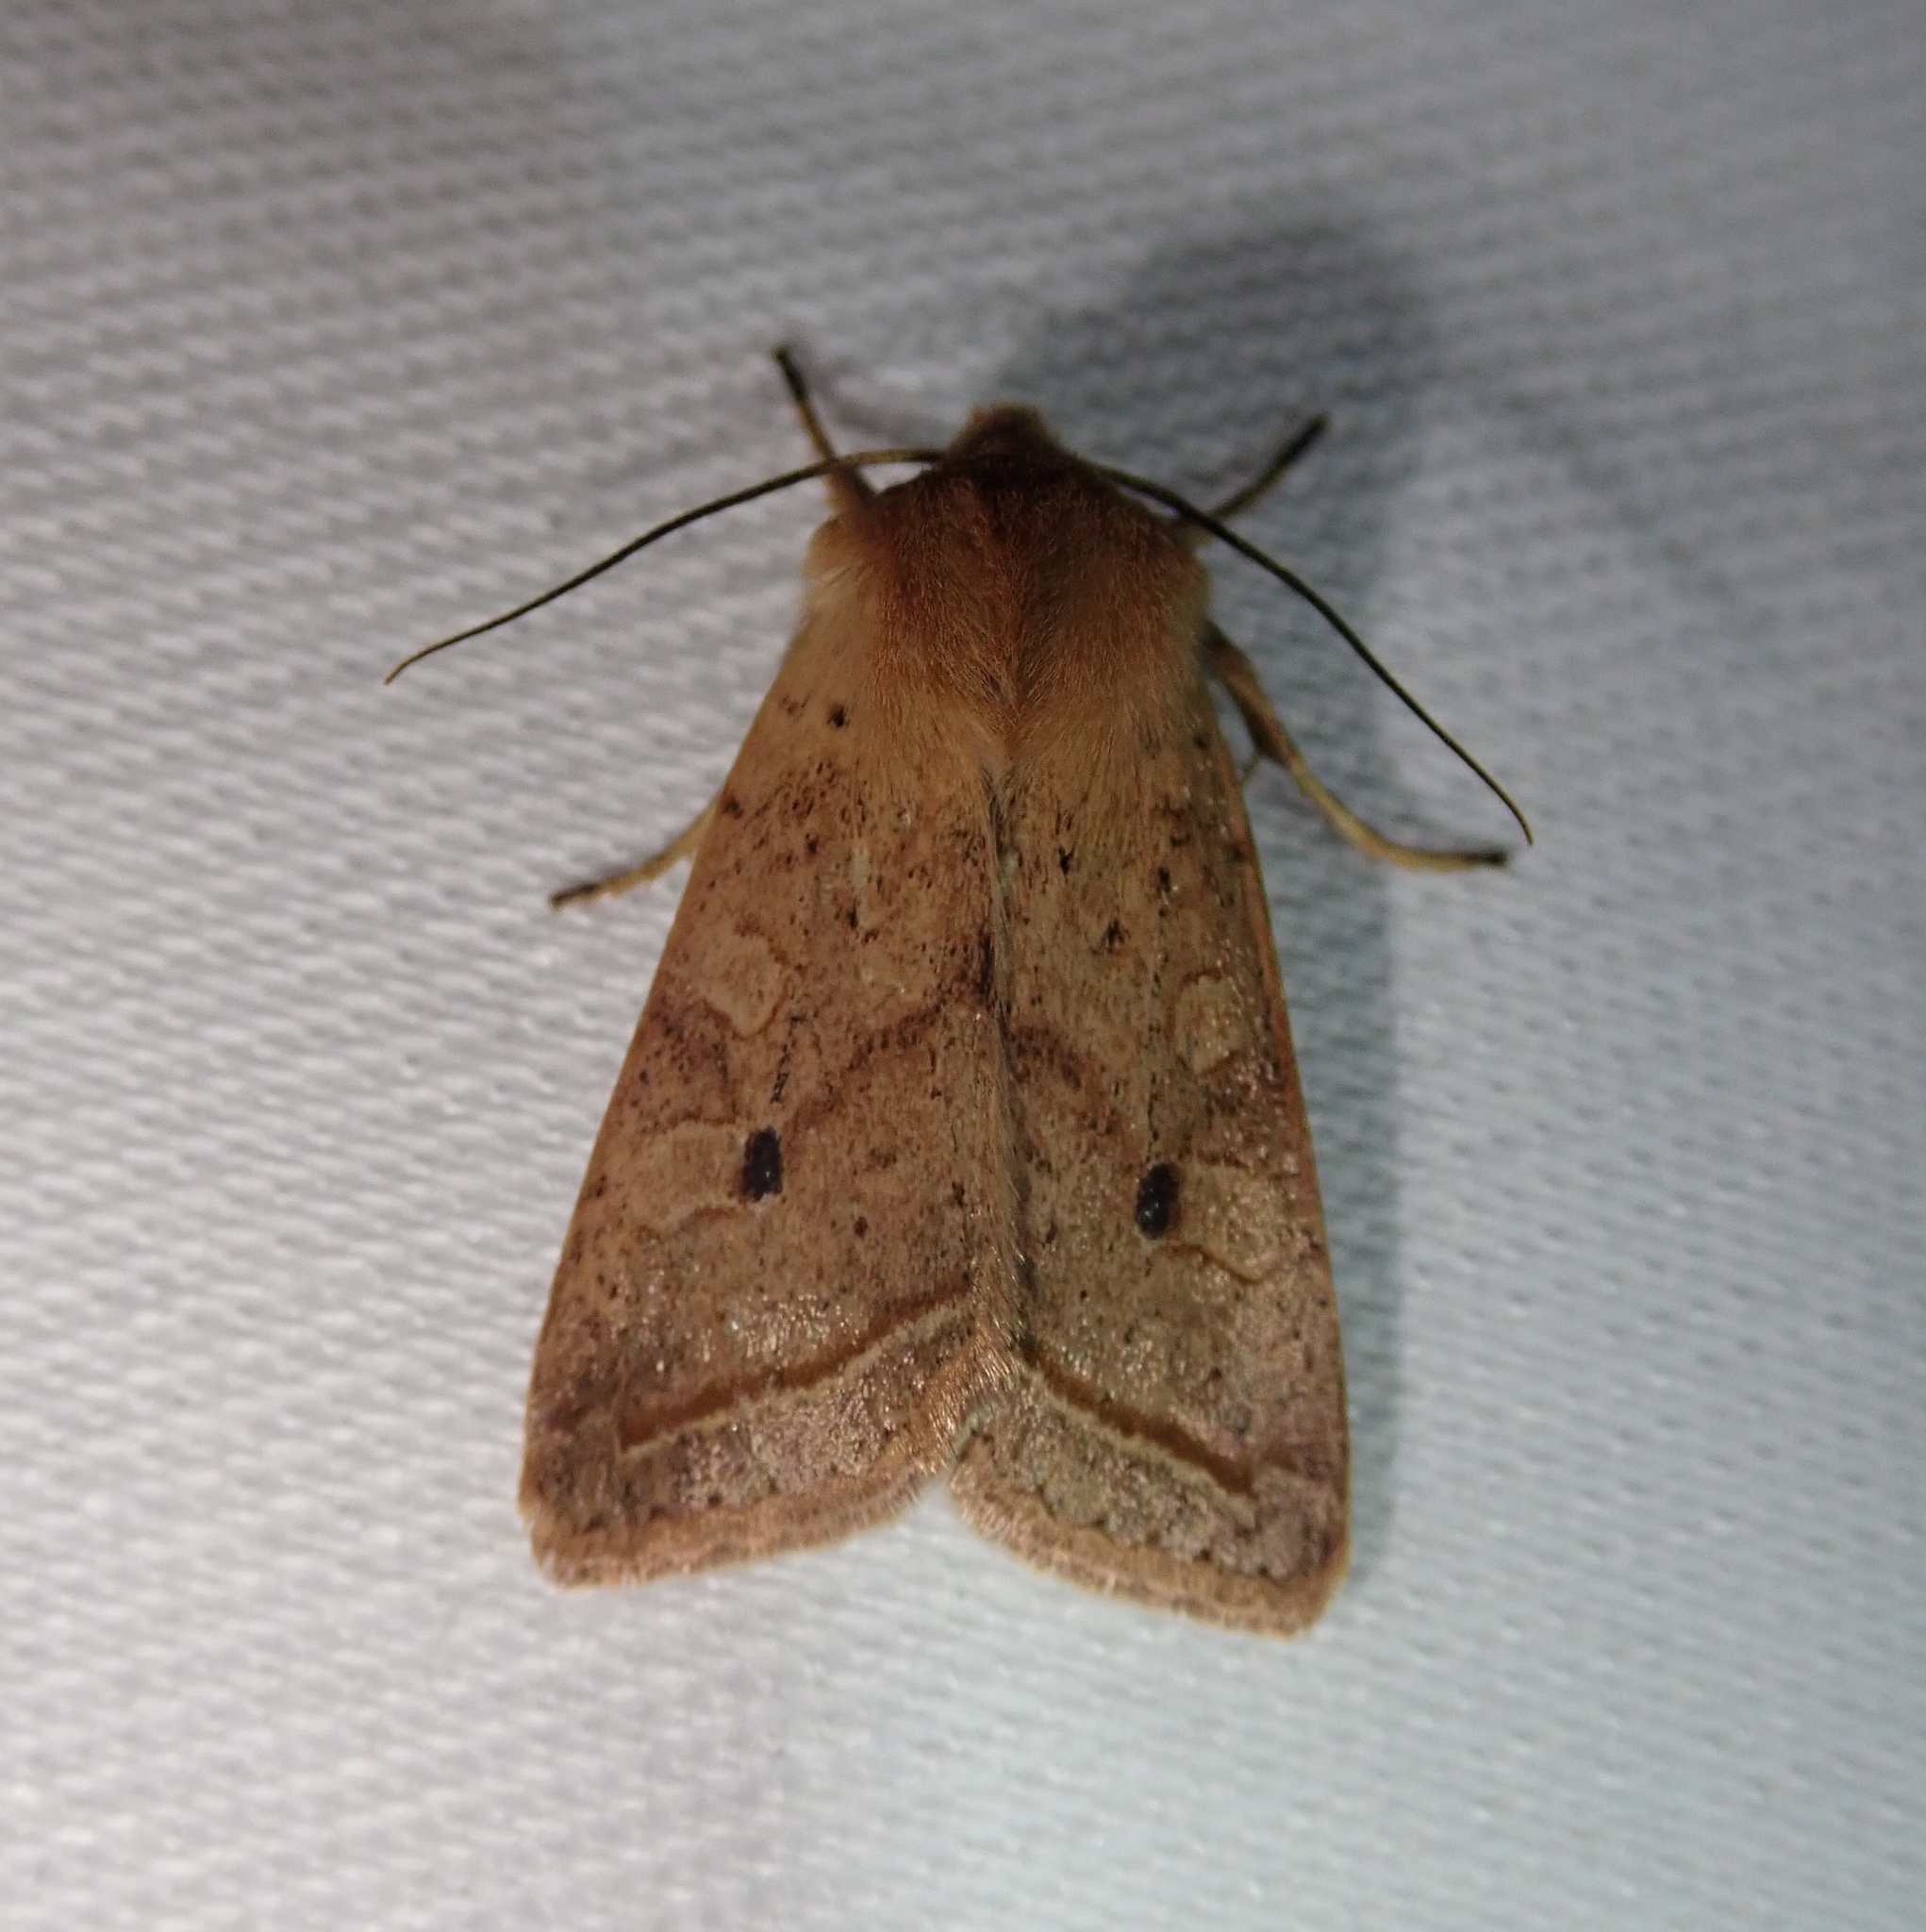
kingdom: Animalia
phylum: Arthropoda
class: Insecta
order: Lepidoptera
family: Noctuidae
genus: Agrochola
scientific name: Agrochola macilenta
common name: Yellow-line quaker
